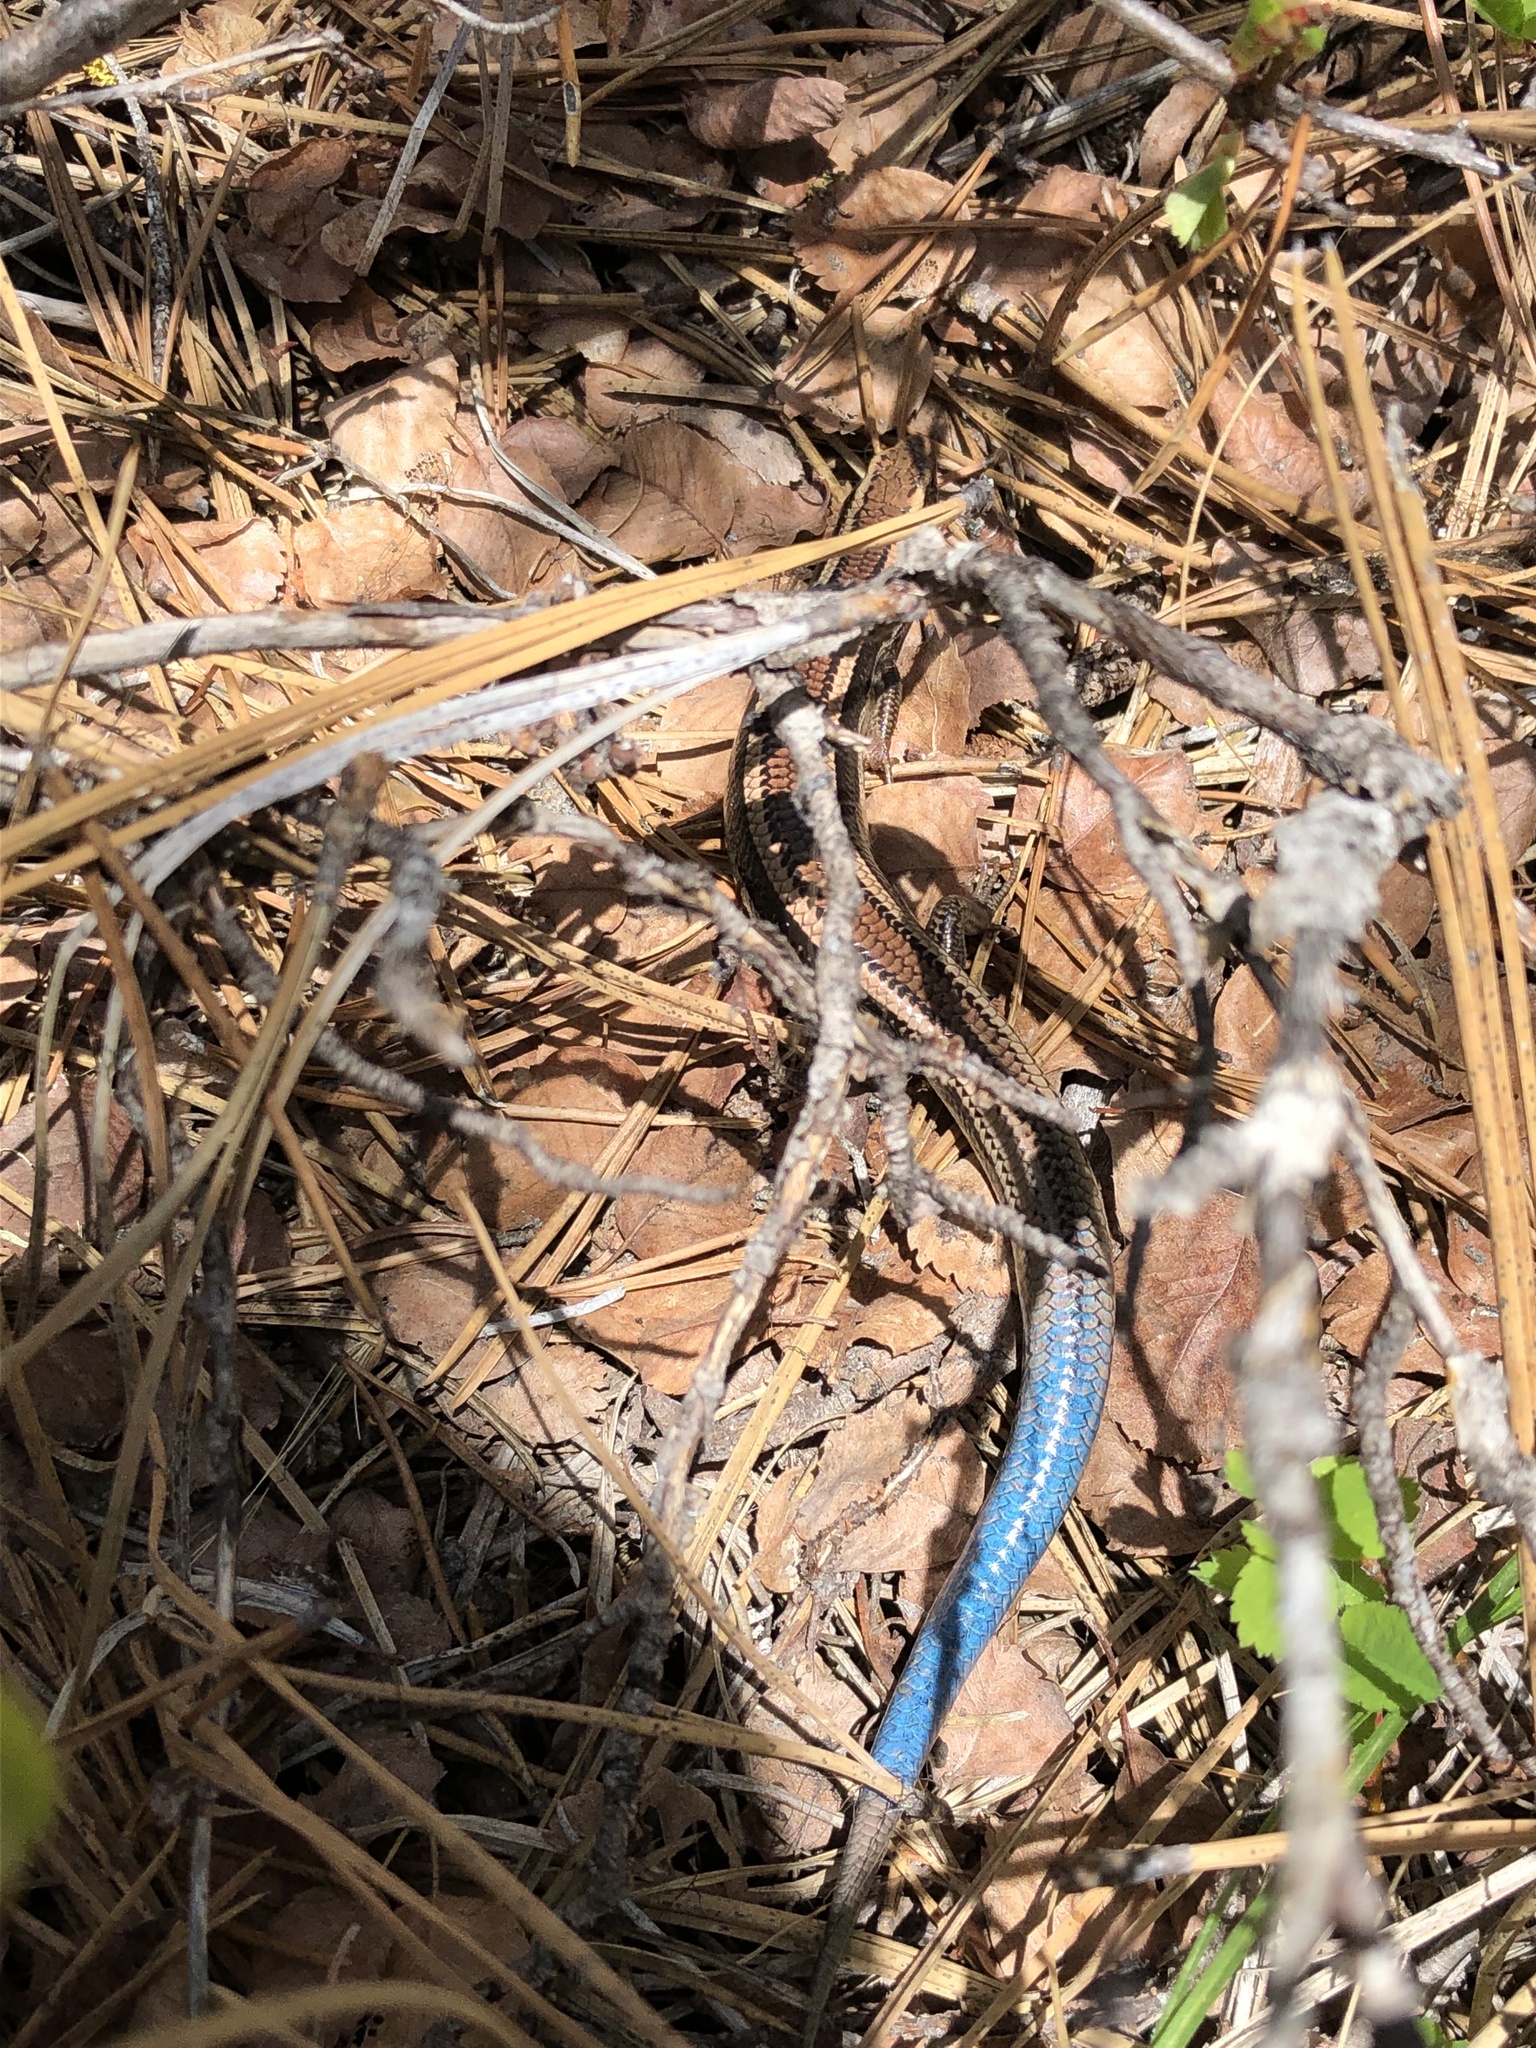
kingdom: Animalia
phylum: Chordata
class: Squamata
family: Scincidae
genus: Plestiodon
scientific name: Plestiodon skiltonianus
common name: Coronado island skink [interparietalis]
